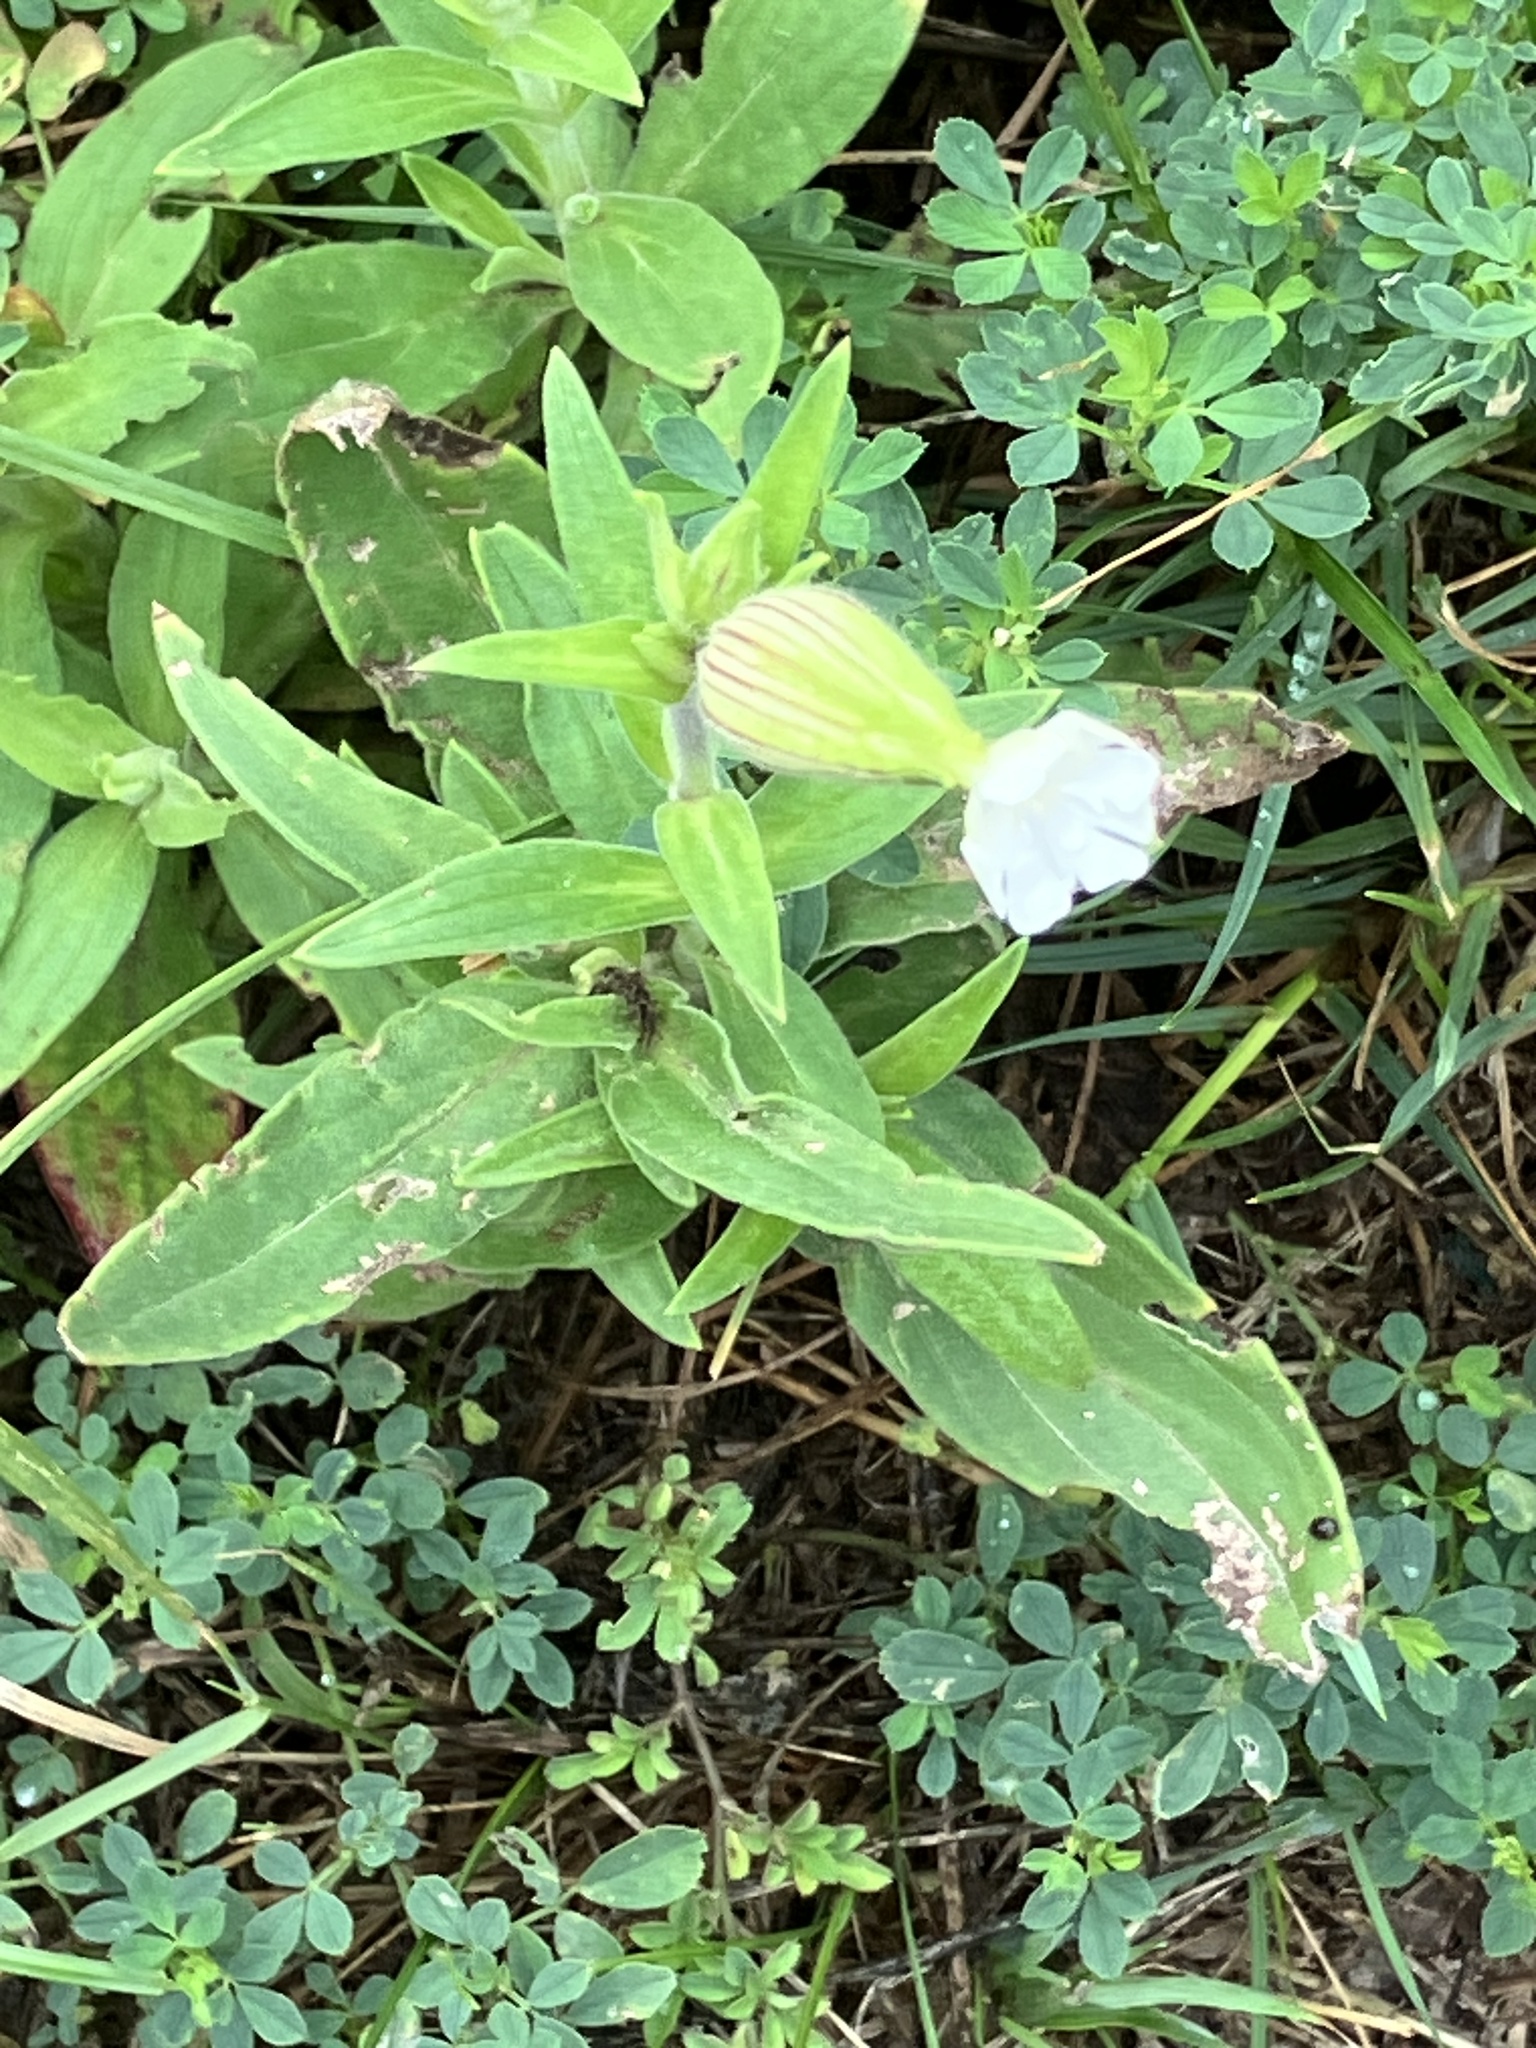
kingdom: Plantae
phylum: Tracheophyta
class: Magnoliopsida
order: Caryophyllales
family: Caryophyllaceae
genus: Silene
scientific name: Silene latifolia
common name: White campion
